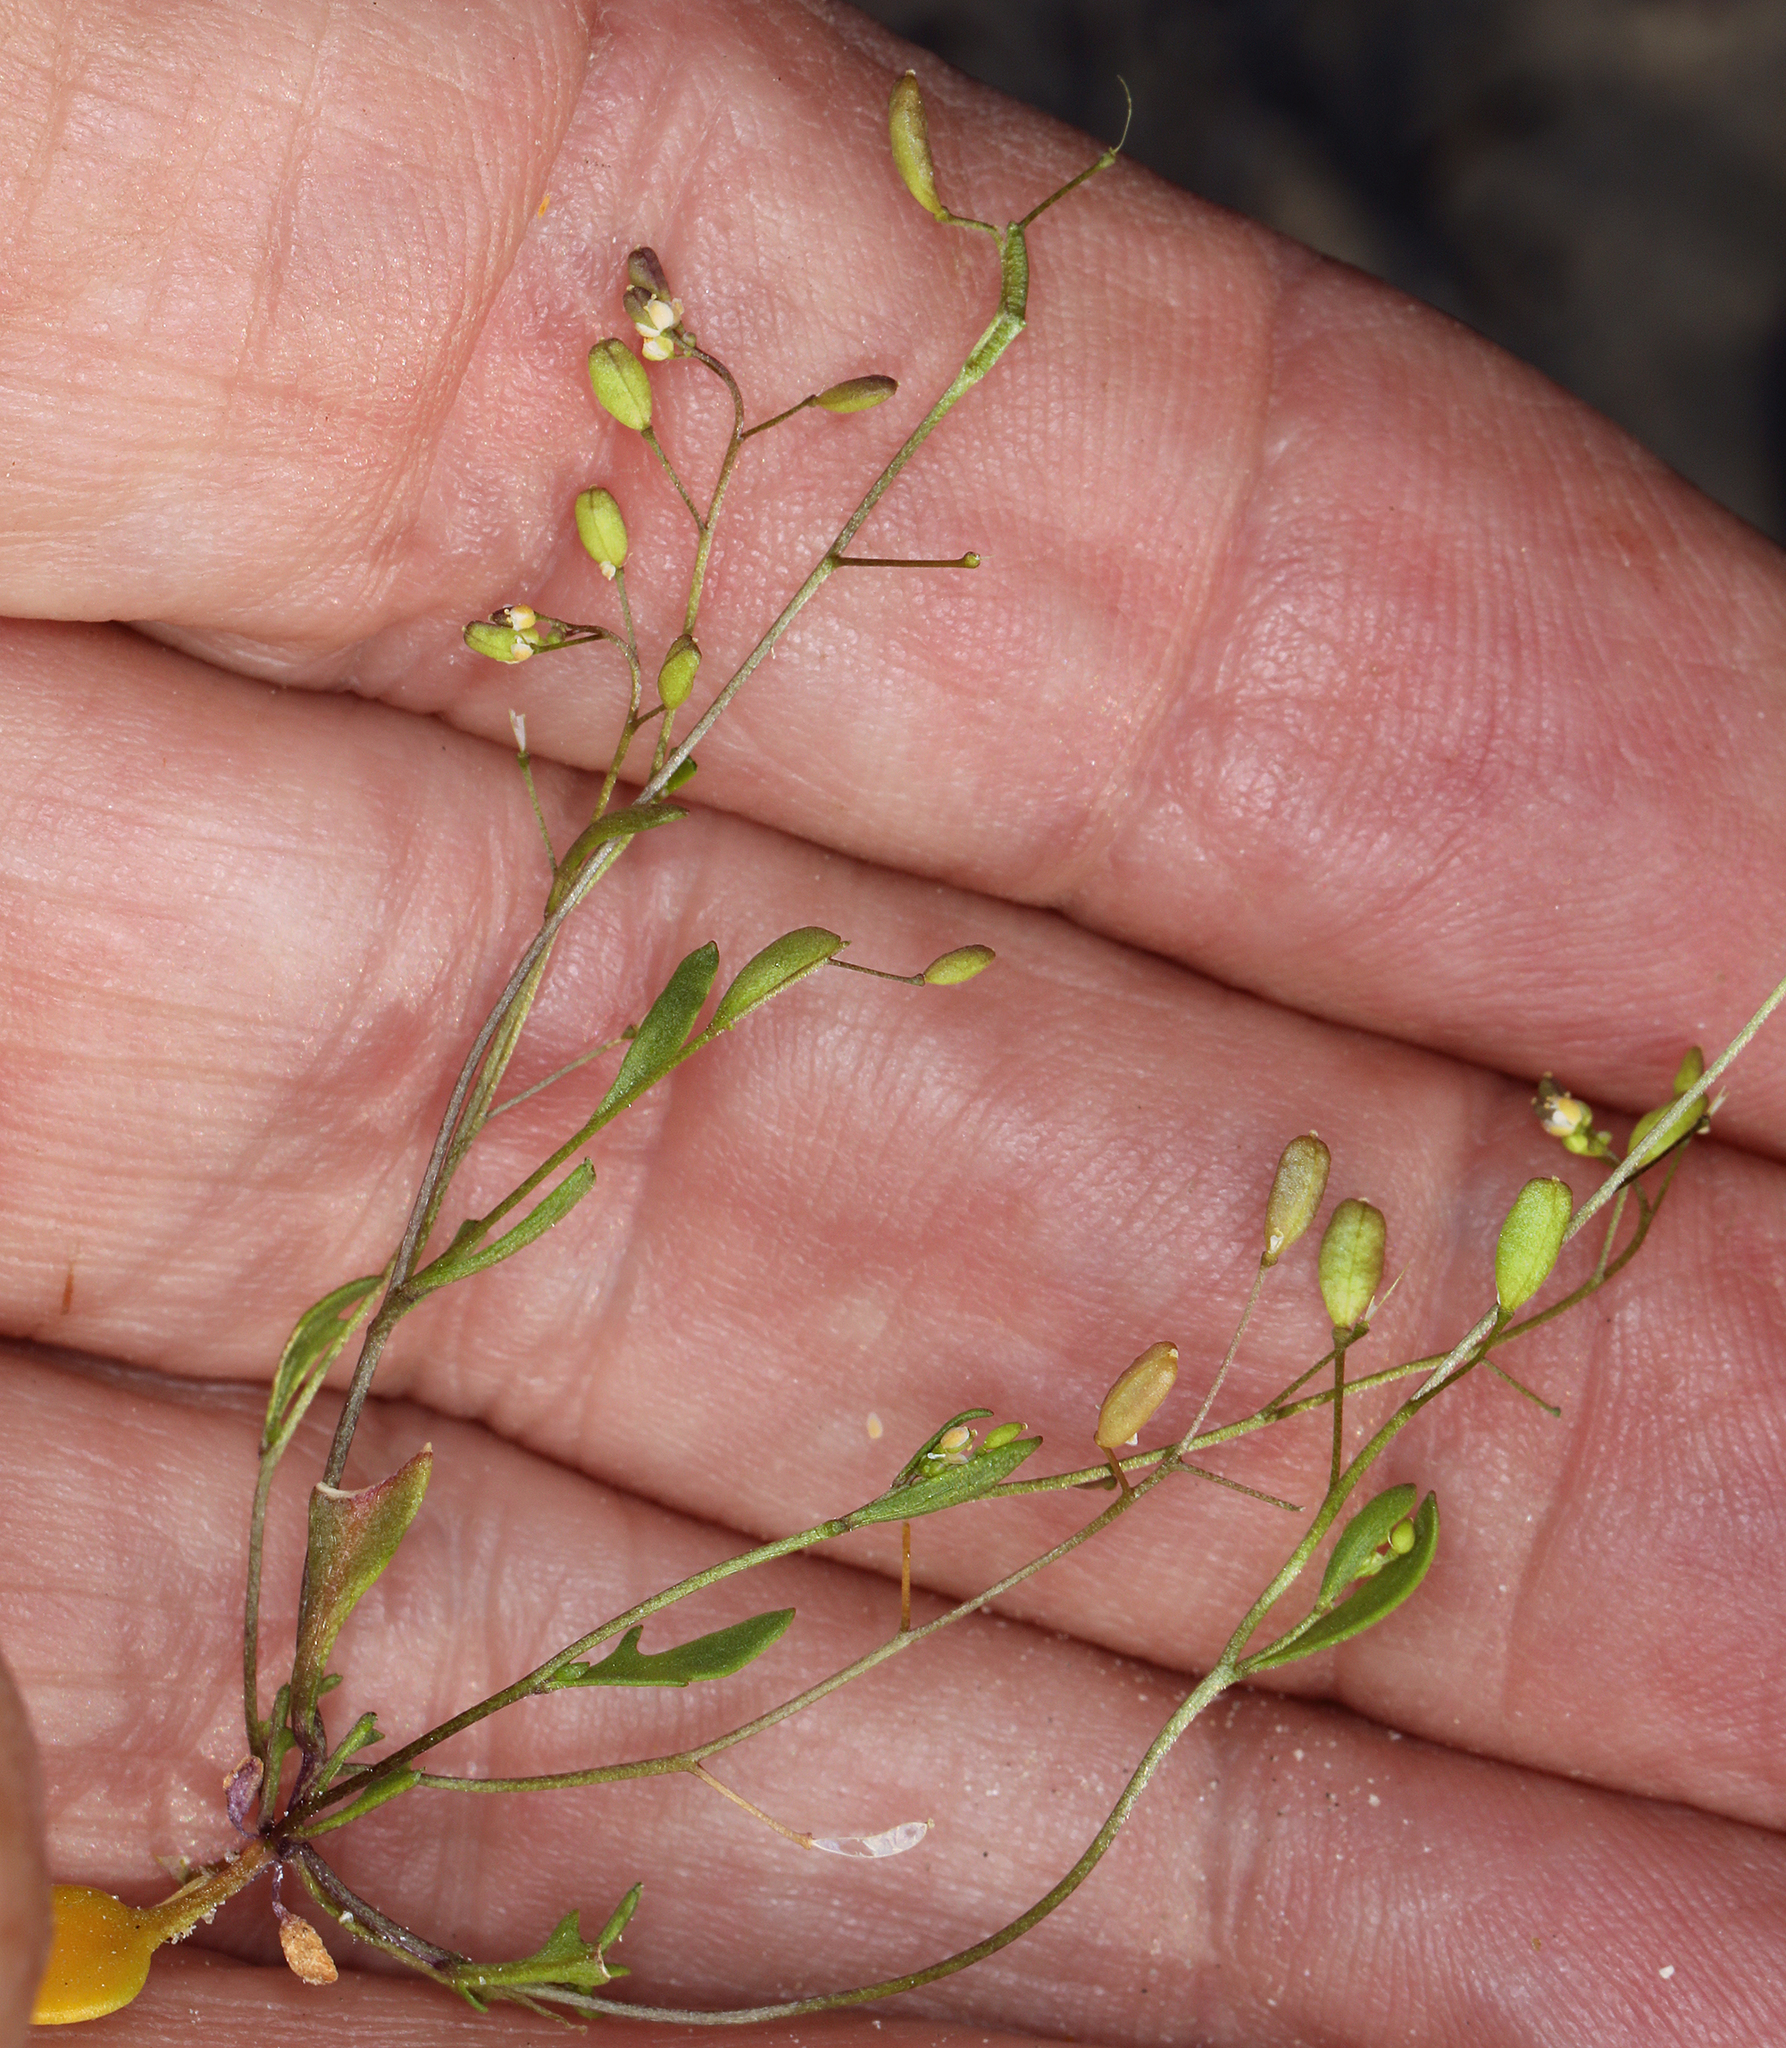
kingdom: Plantae
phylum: Tracheophyta
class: Magnoliopsida
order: Brassicales
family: Brassicaceae
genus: Hornungia
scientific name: Hornungia procumbens
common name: Oval purse
